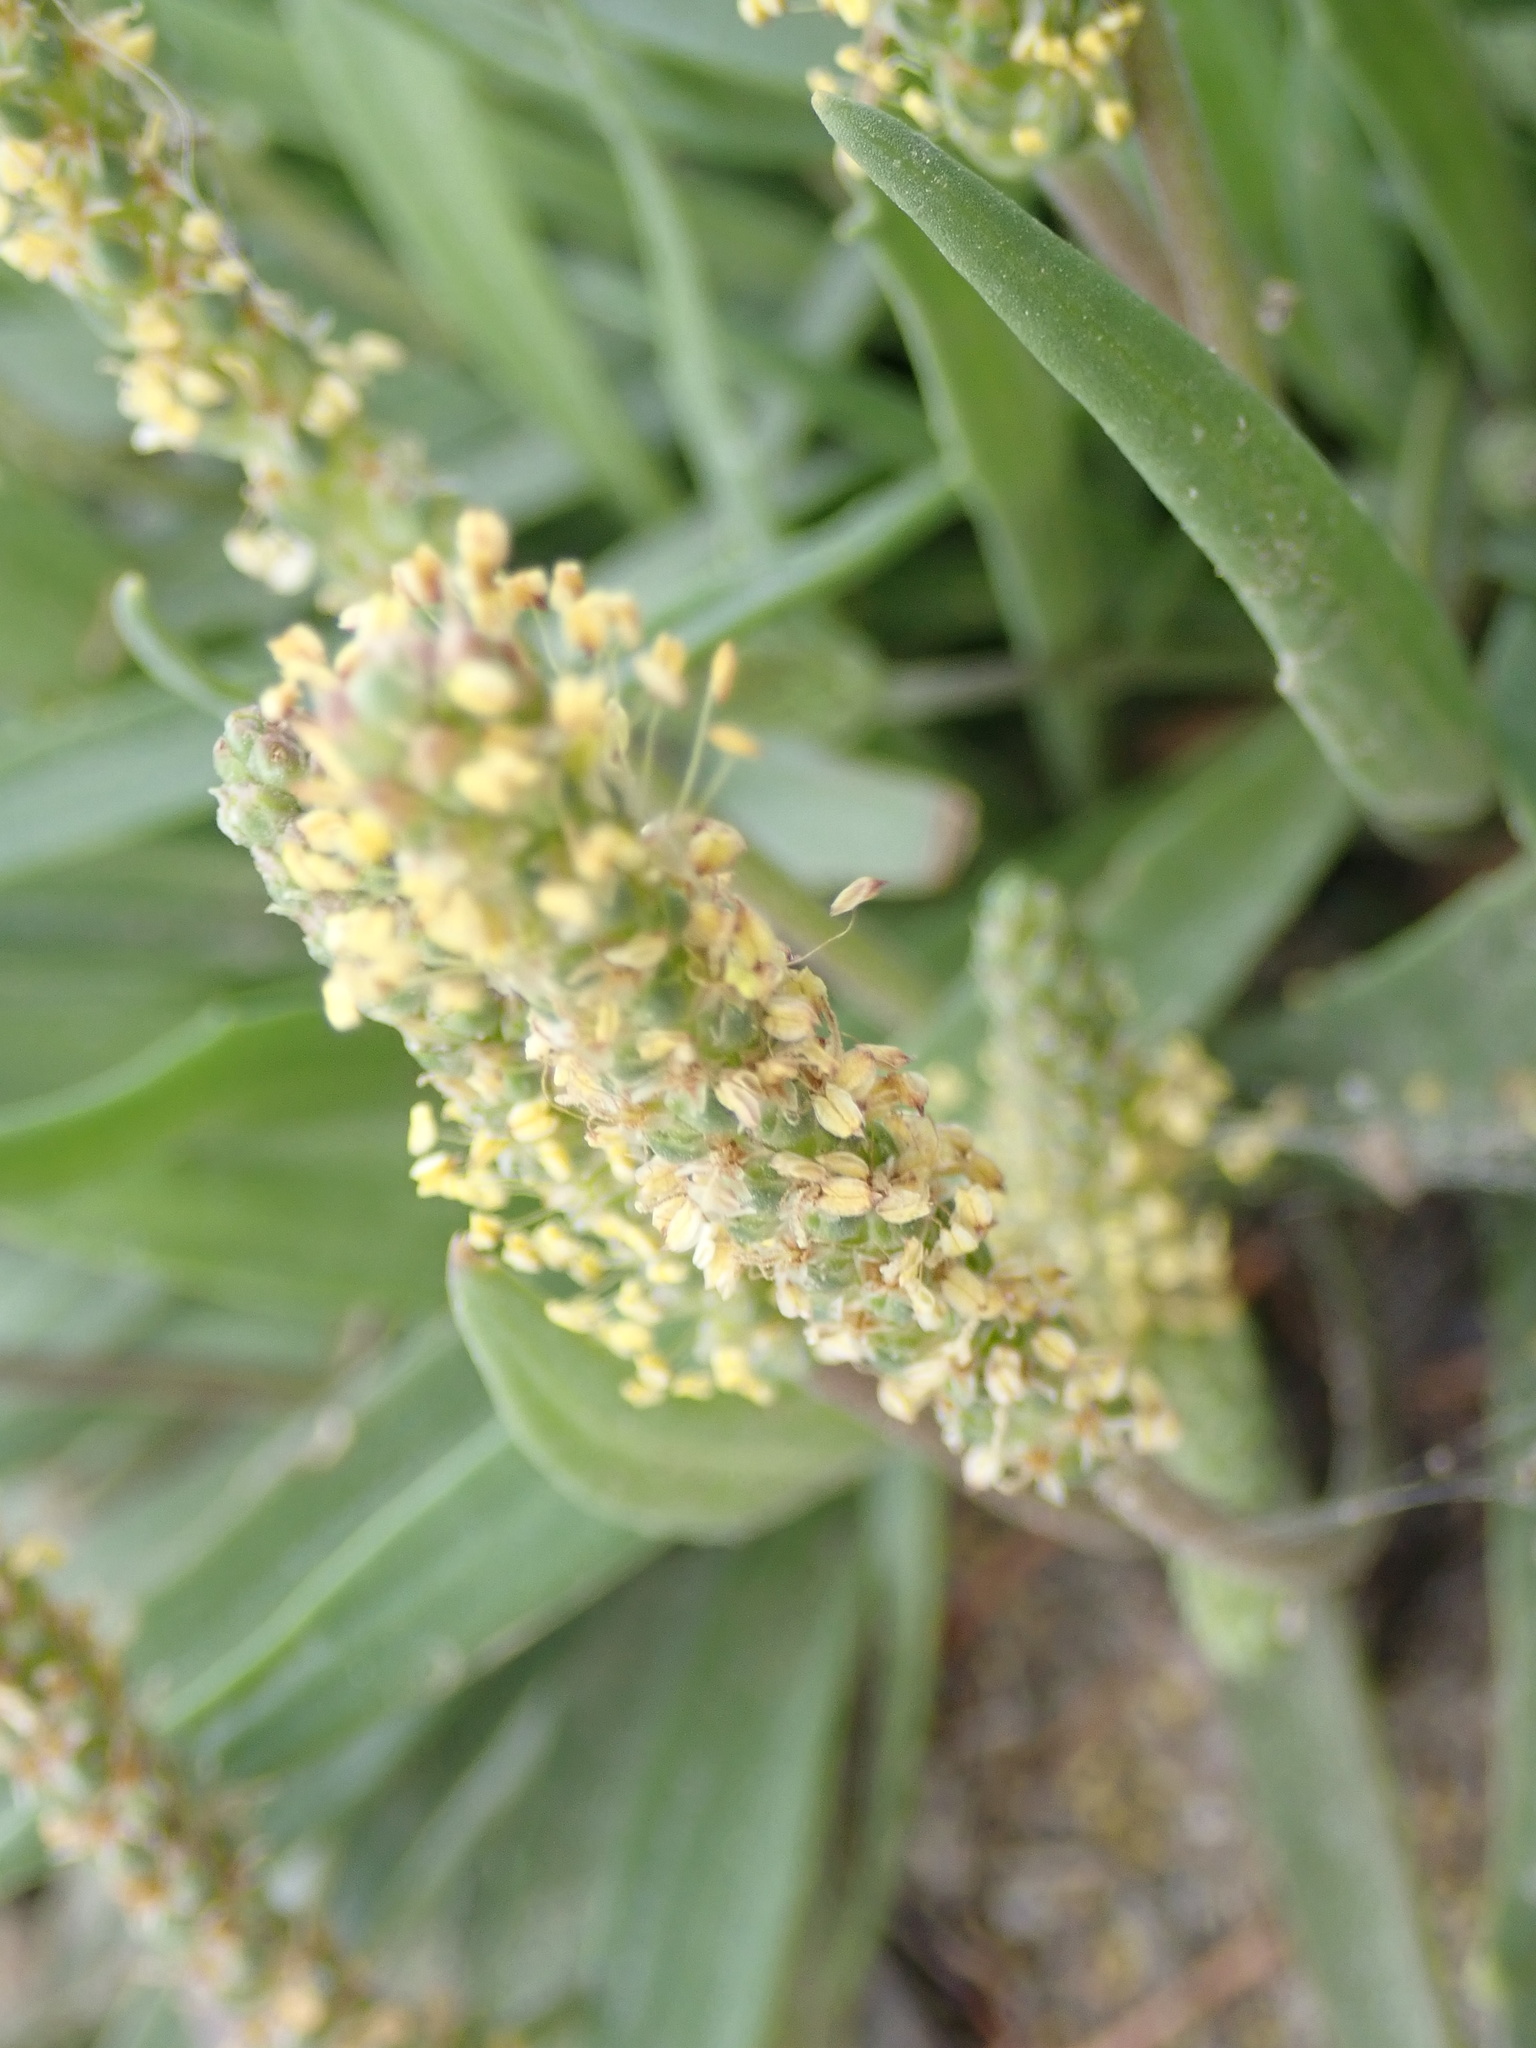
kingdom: Plantae
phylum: Tracheophyta
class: Magnoliopsida
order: Lamiales
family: Plantaginaceae
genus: Plantago
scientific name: Plantago maritima
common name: Sea plantain
